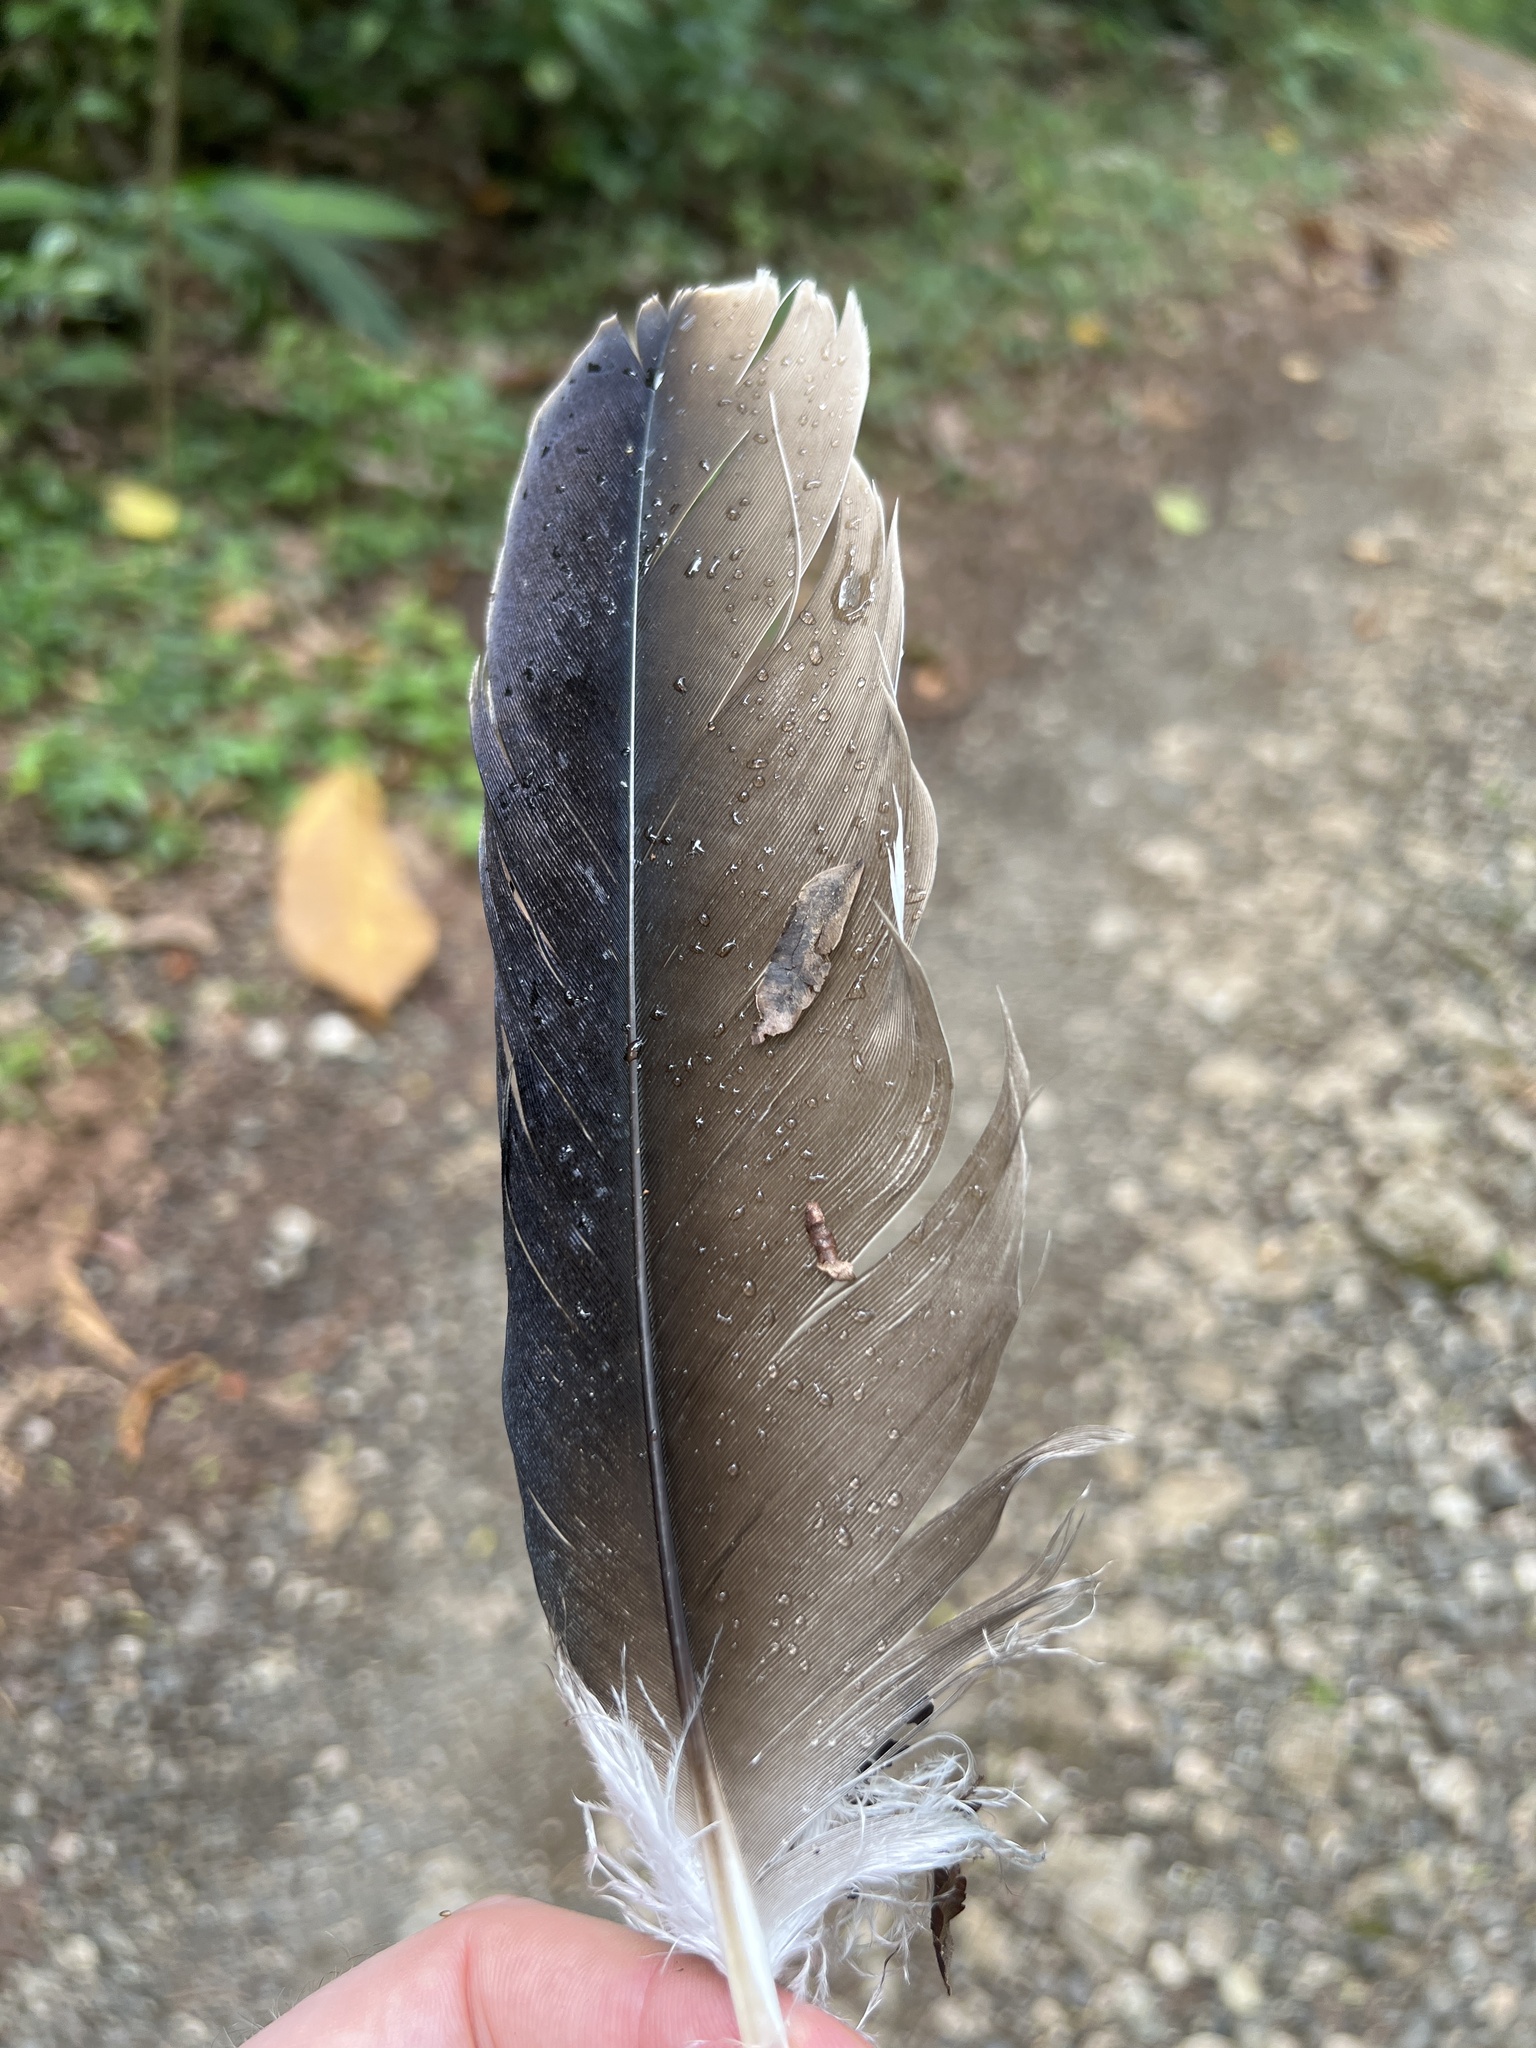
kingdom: Animalia
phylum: Chordata
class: Aves
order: Accipitriformes
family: Cathartidae
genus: Cathartes
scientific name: Cathartes aura
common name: Turkey vulture
